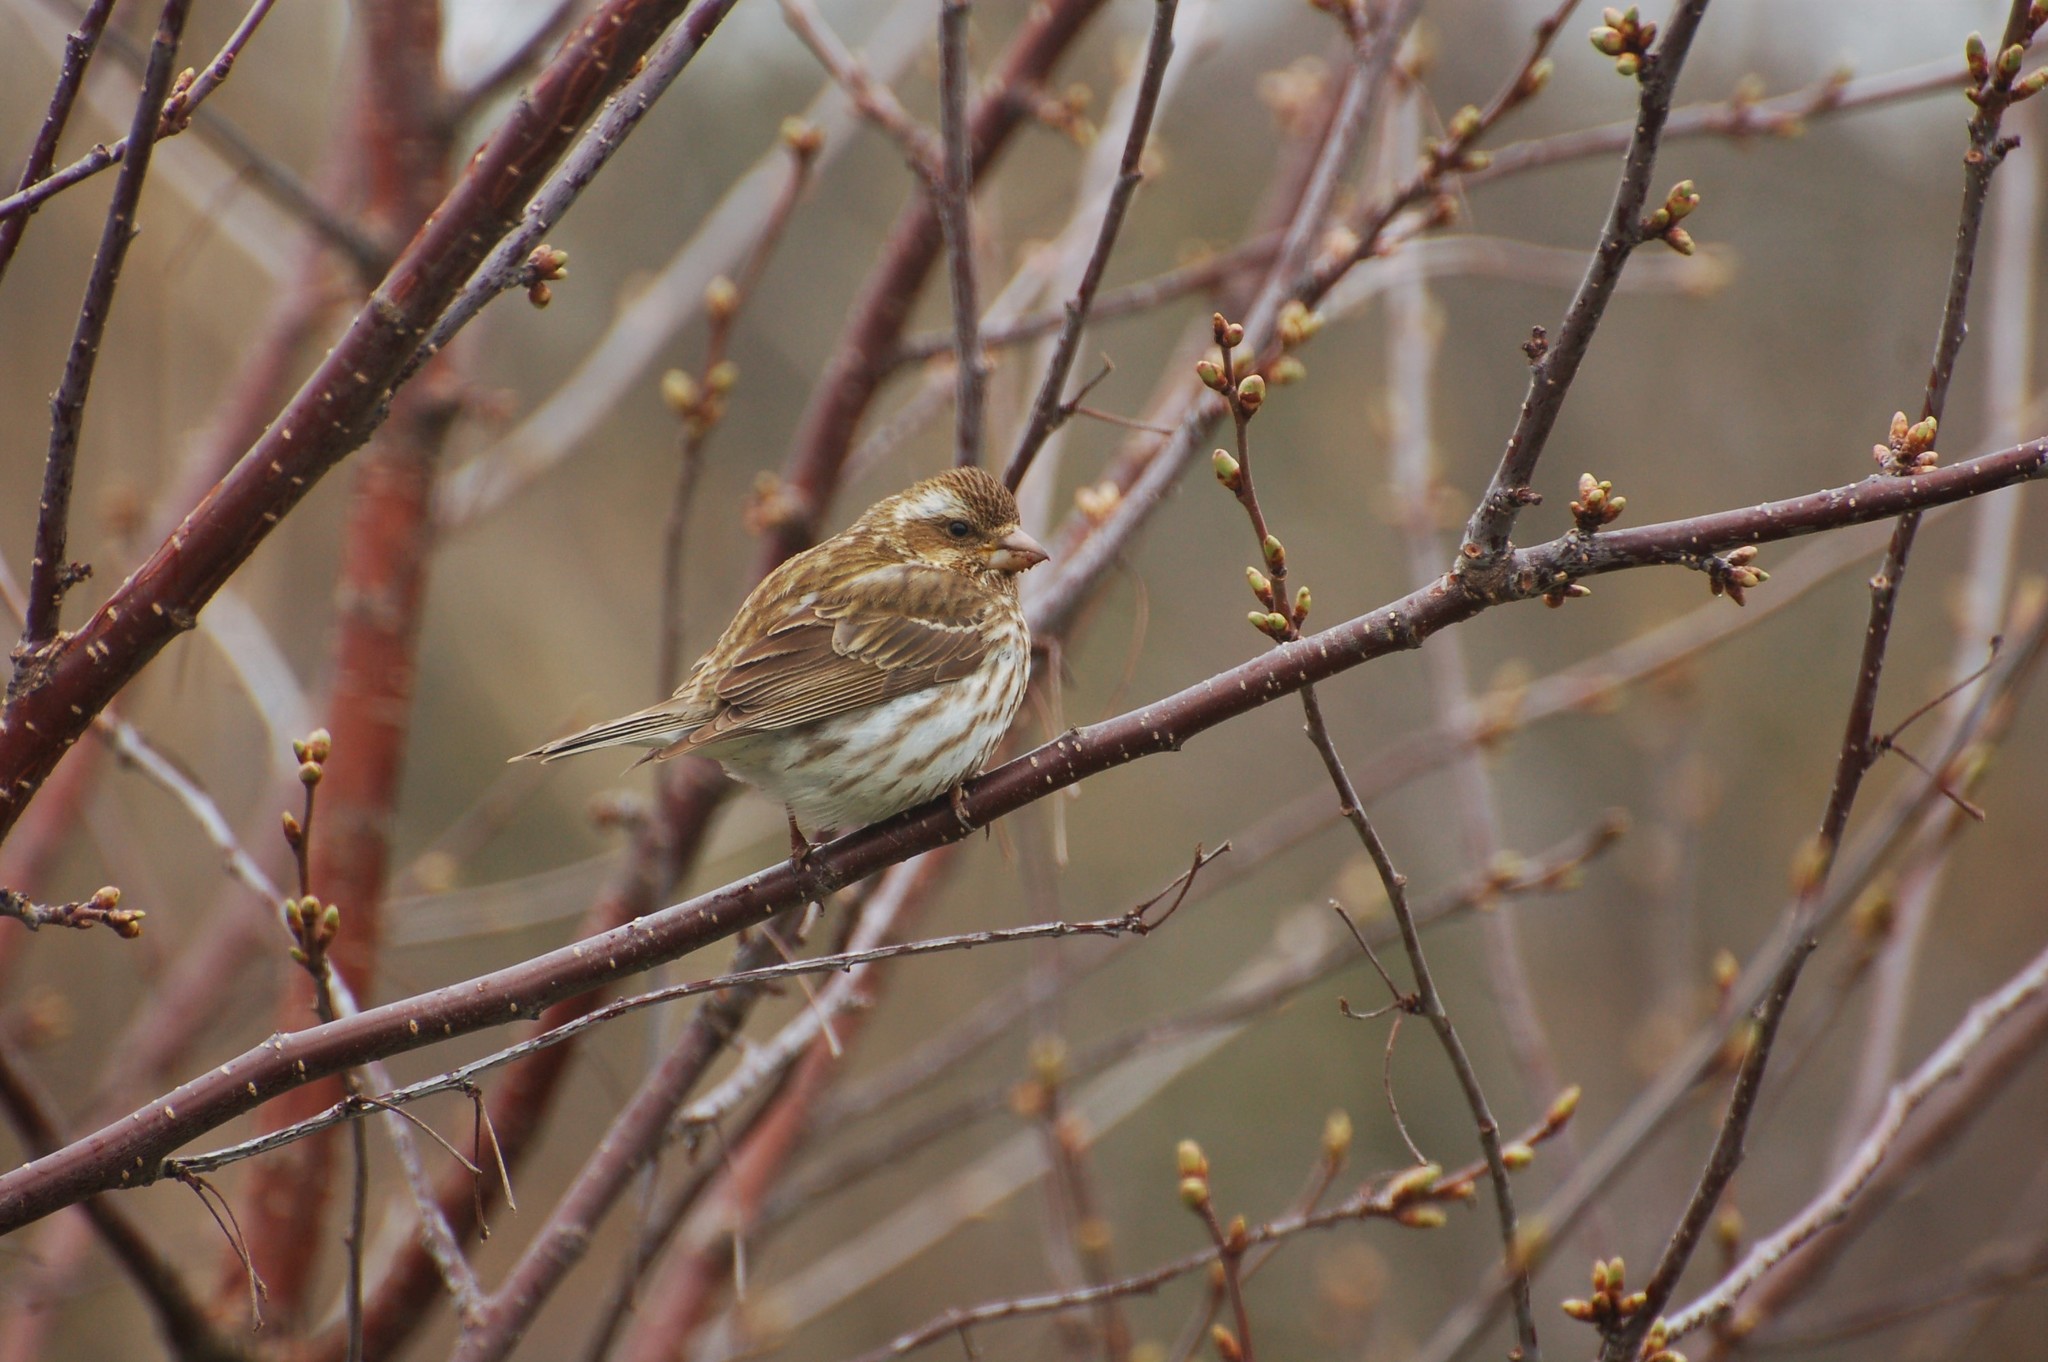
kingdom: Animalia
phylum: Chordata
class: Aves
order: Passeriformes
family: Fringillidae
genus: Haemorhous
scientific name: Haemorhous purpureus
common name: Purple finch
